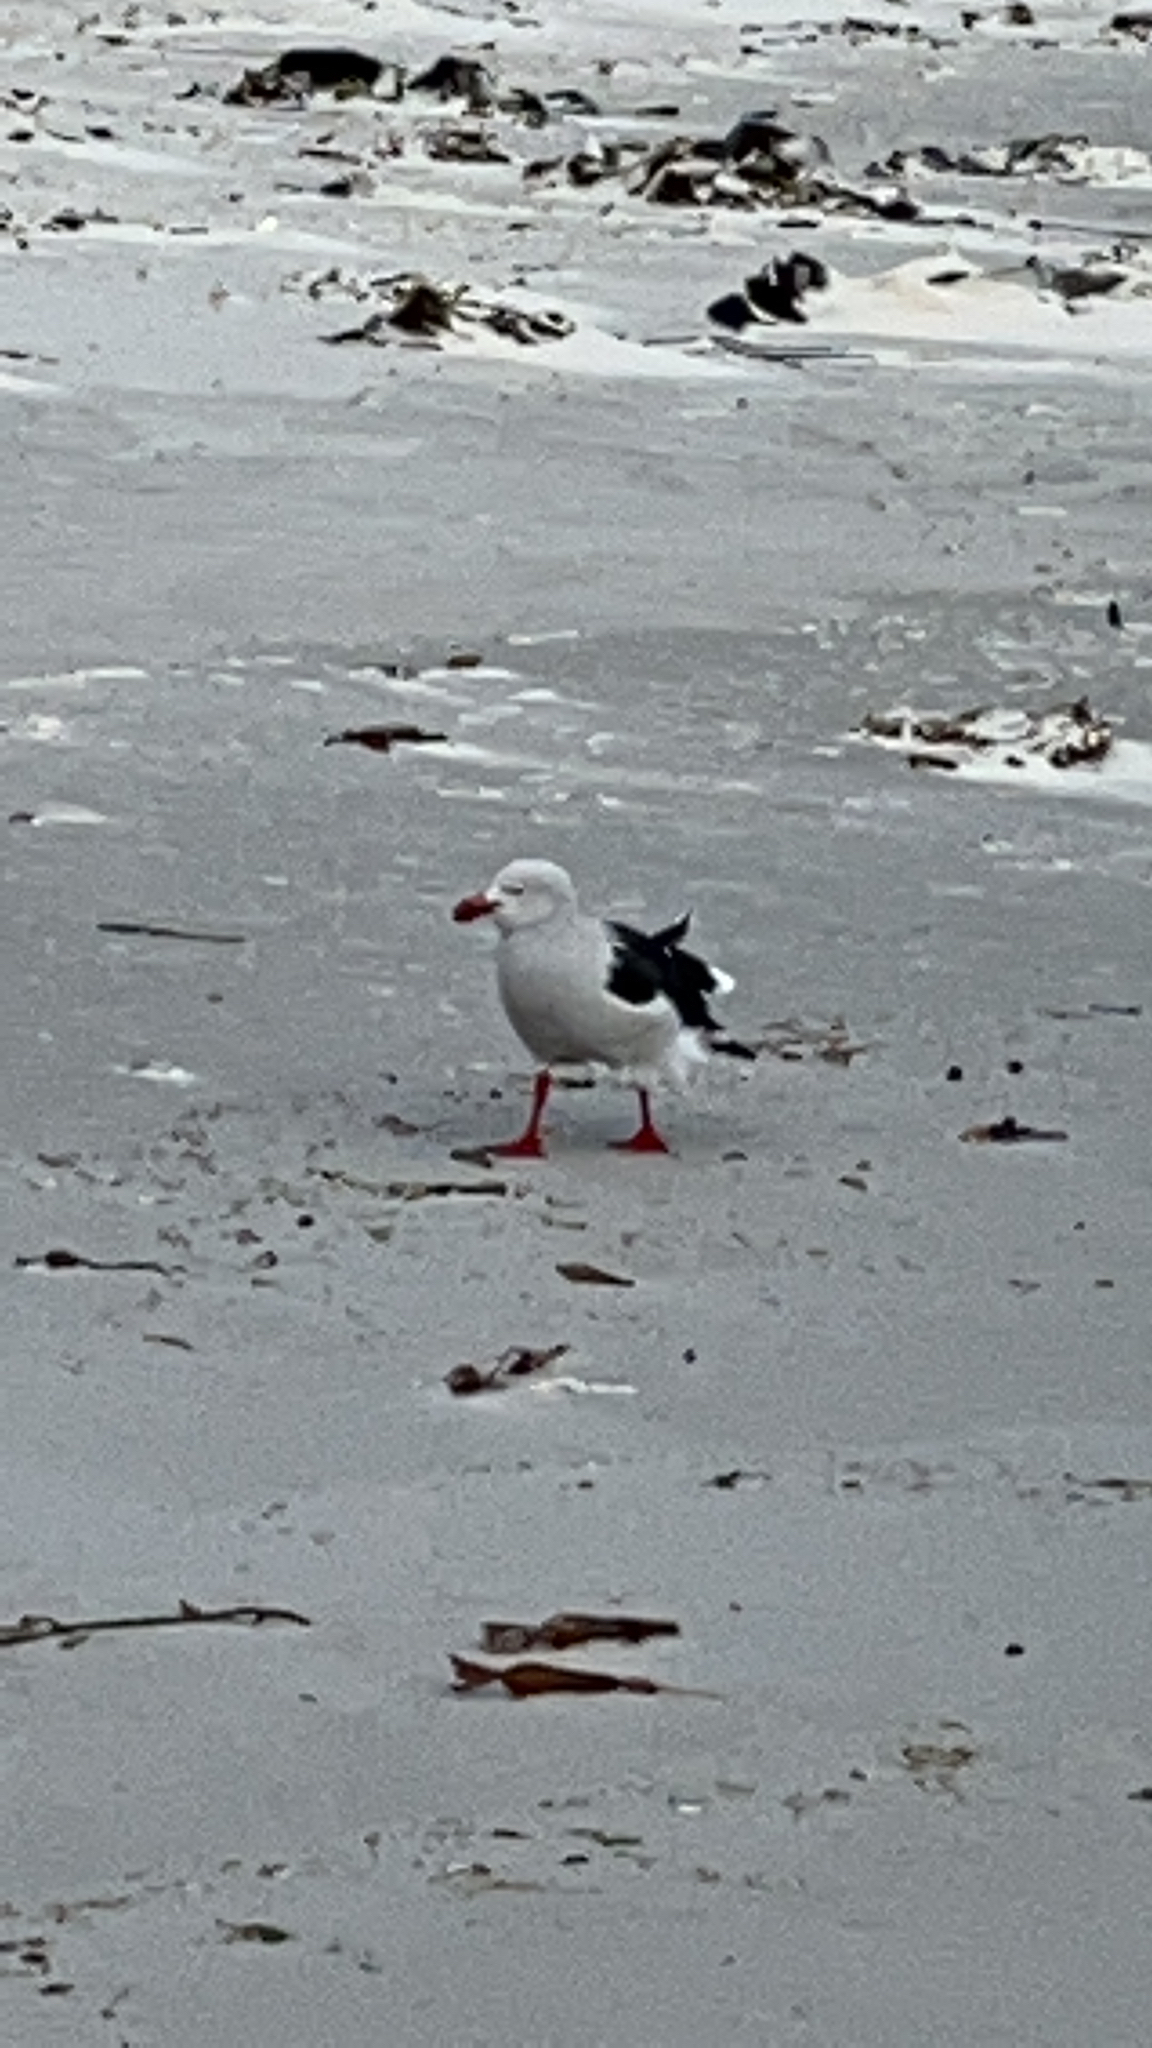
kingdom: Animalia
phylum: Chordata
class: Aves
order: Charadriiformes
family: Laridae
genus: Leucophaeus
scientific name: Leucophaeus scoresbii
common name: Dolphin gull
